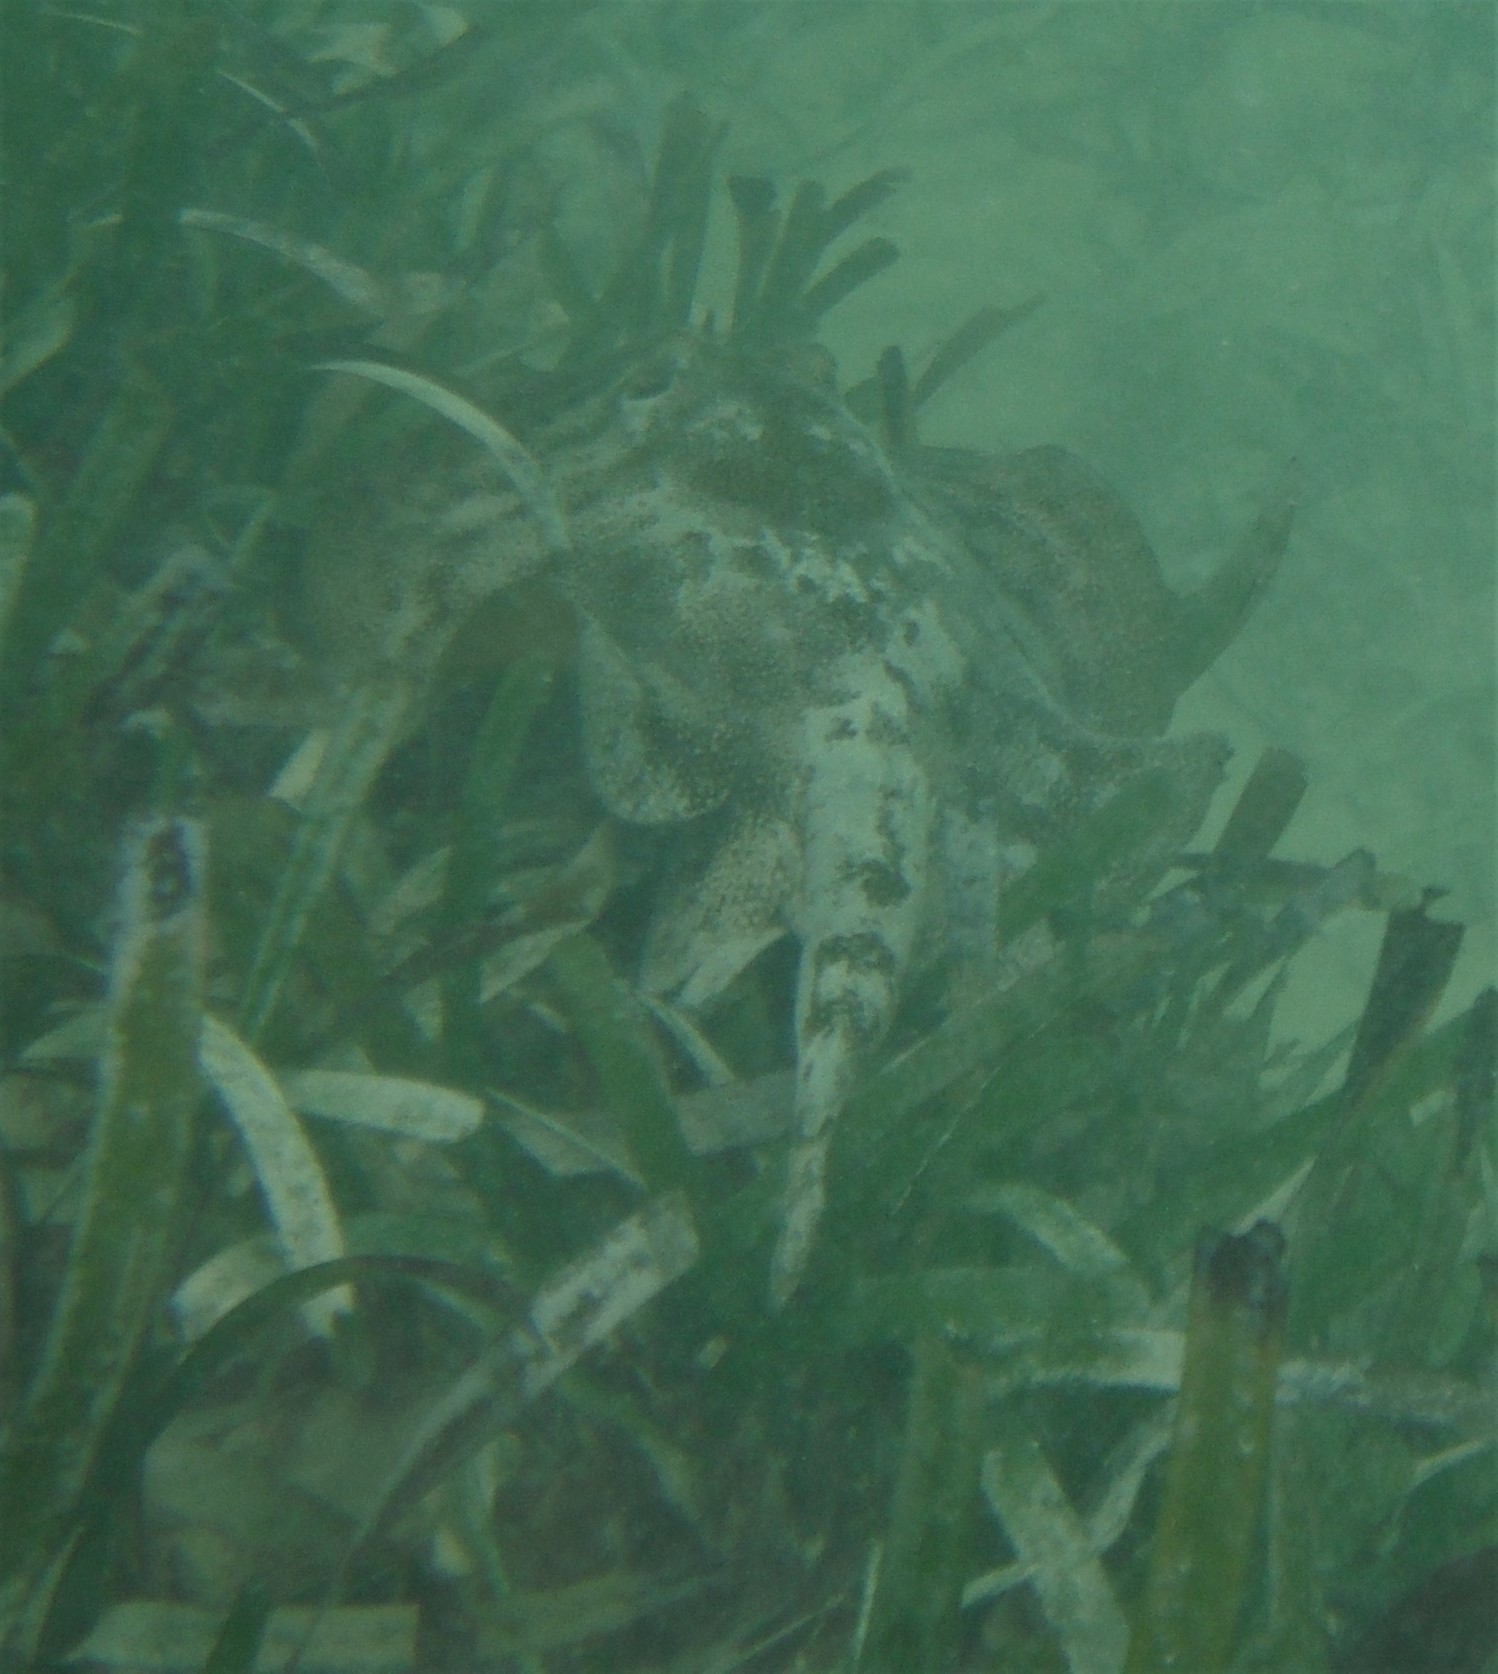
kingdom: Animalia
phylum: Chordata
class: Elasmobranchii
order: Myliobatiformes
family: Urotrygonidae
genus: Urobatis
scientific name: Urobatis jamaicensis
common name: Yellow stingray
